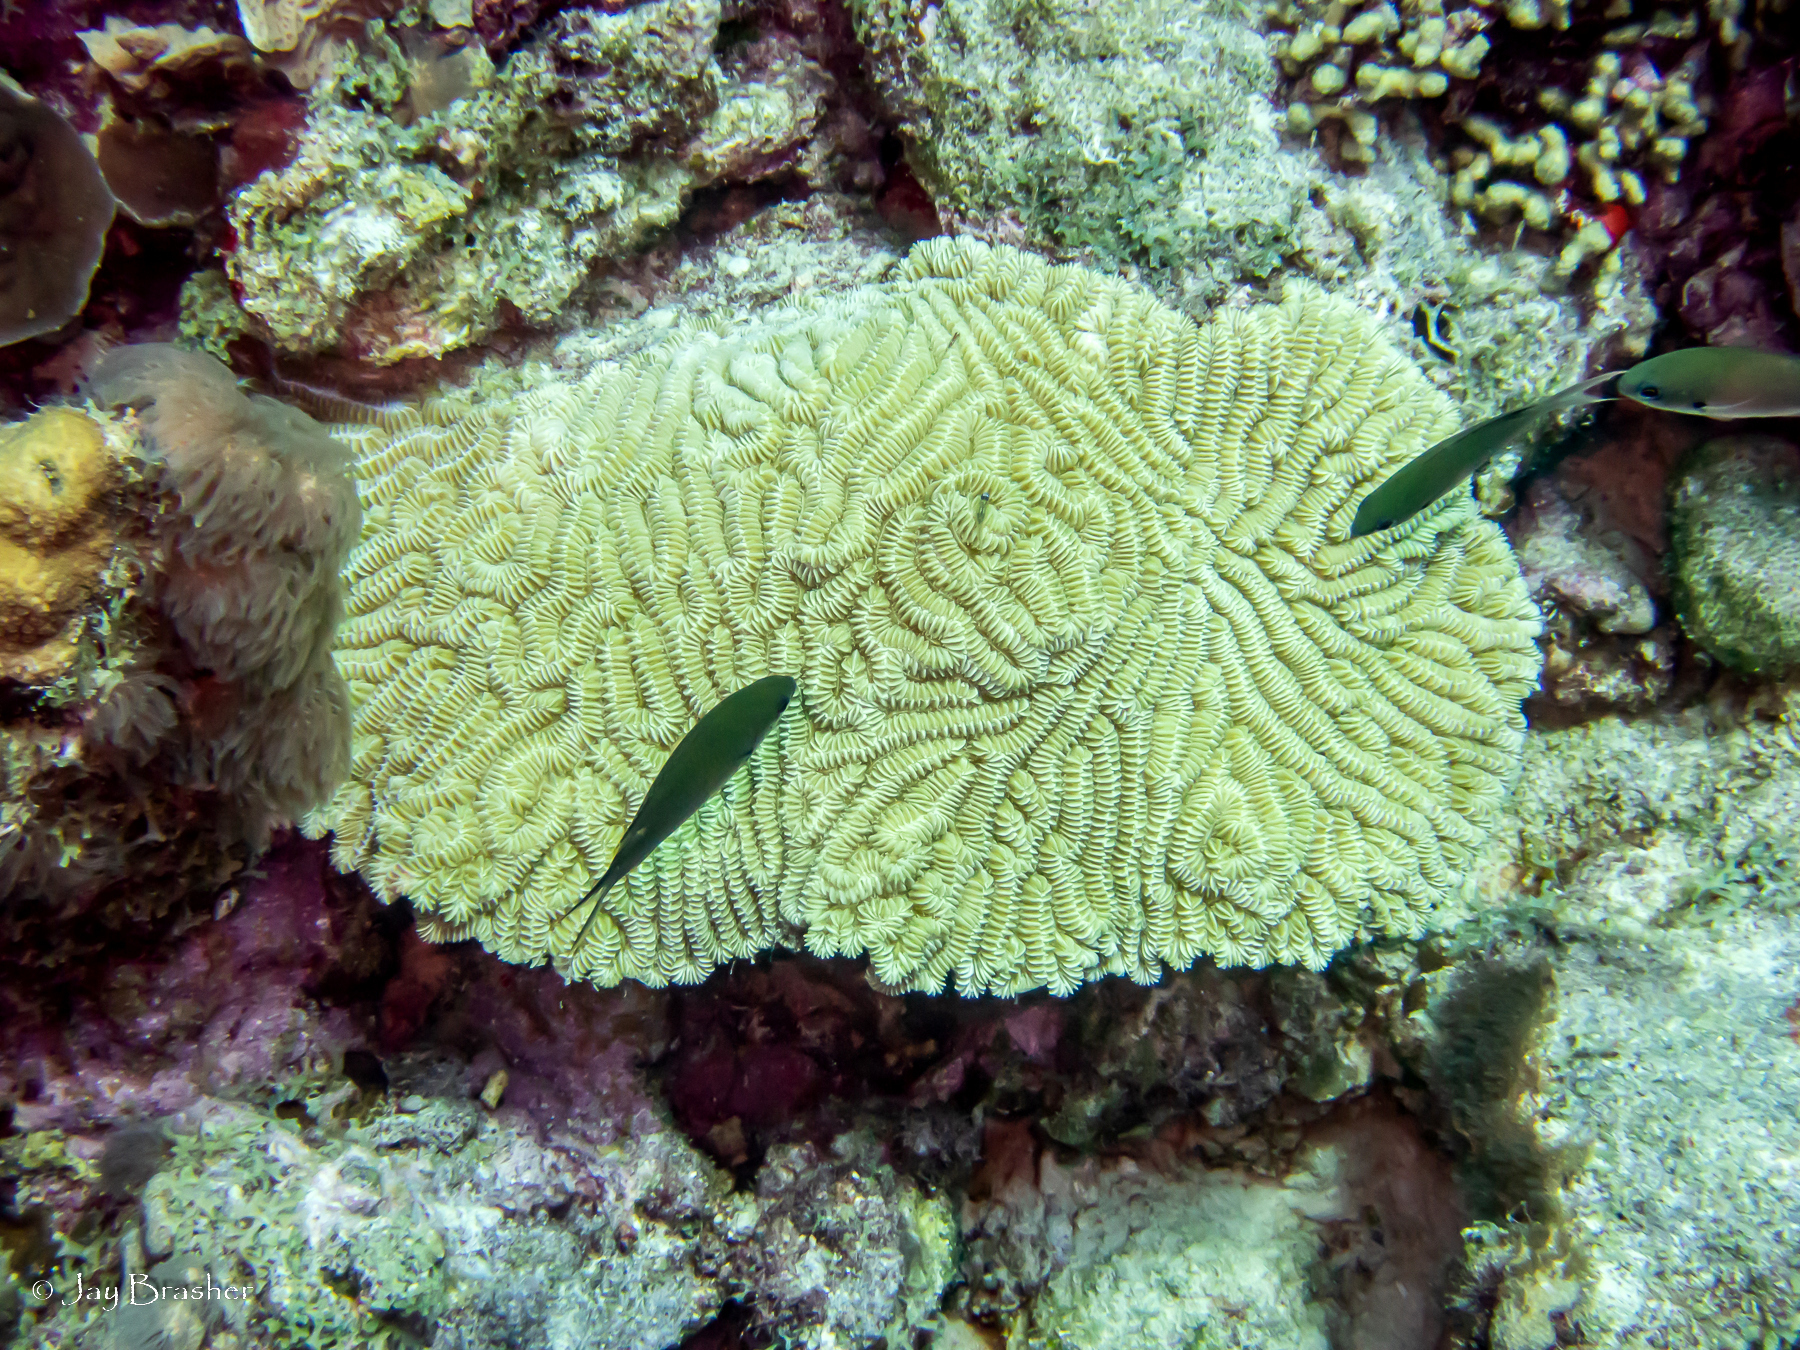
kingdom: Animalia
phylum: Cnidaria
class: Anthozoa
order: Scleractinia
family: Meandrinidae
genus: Meandrina
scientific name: Meandrina meandrites
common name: Maze coral
